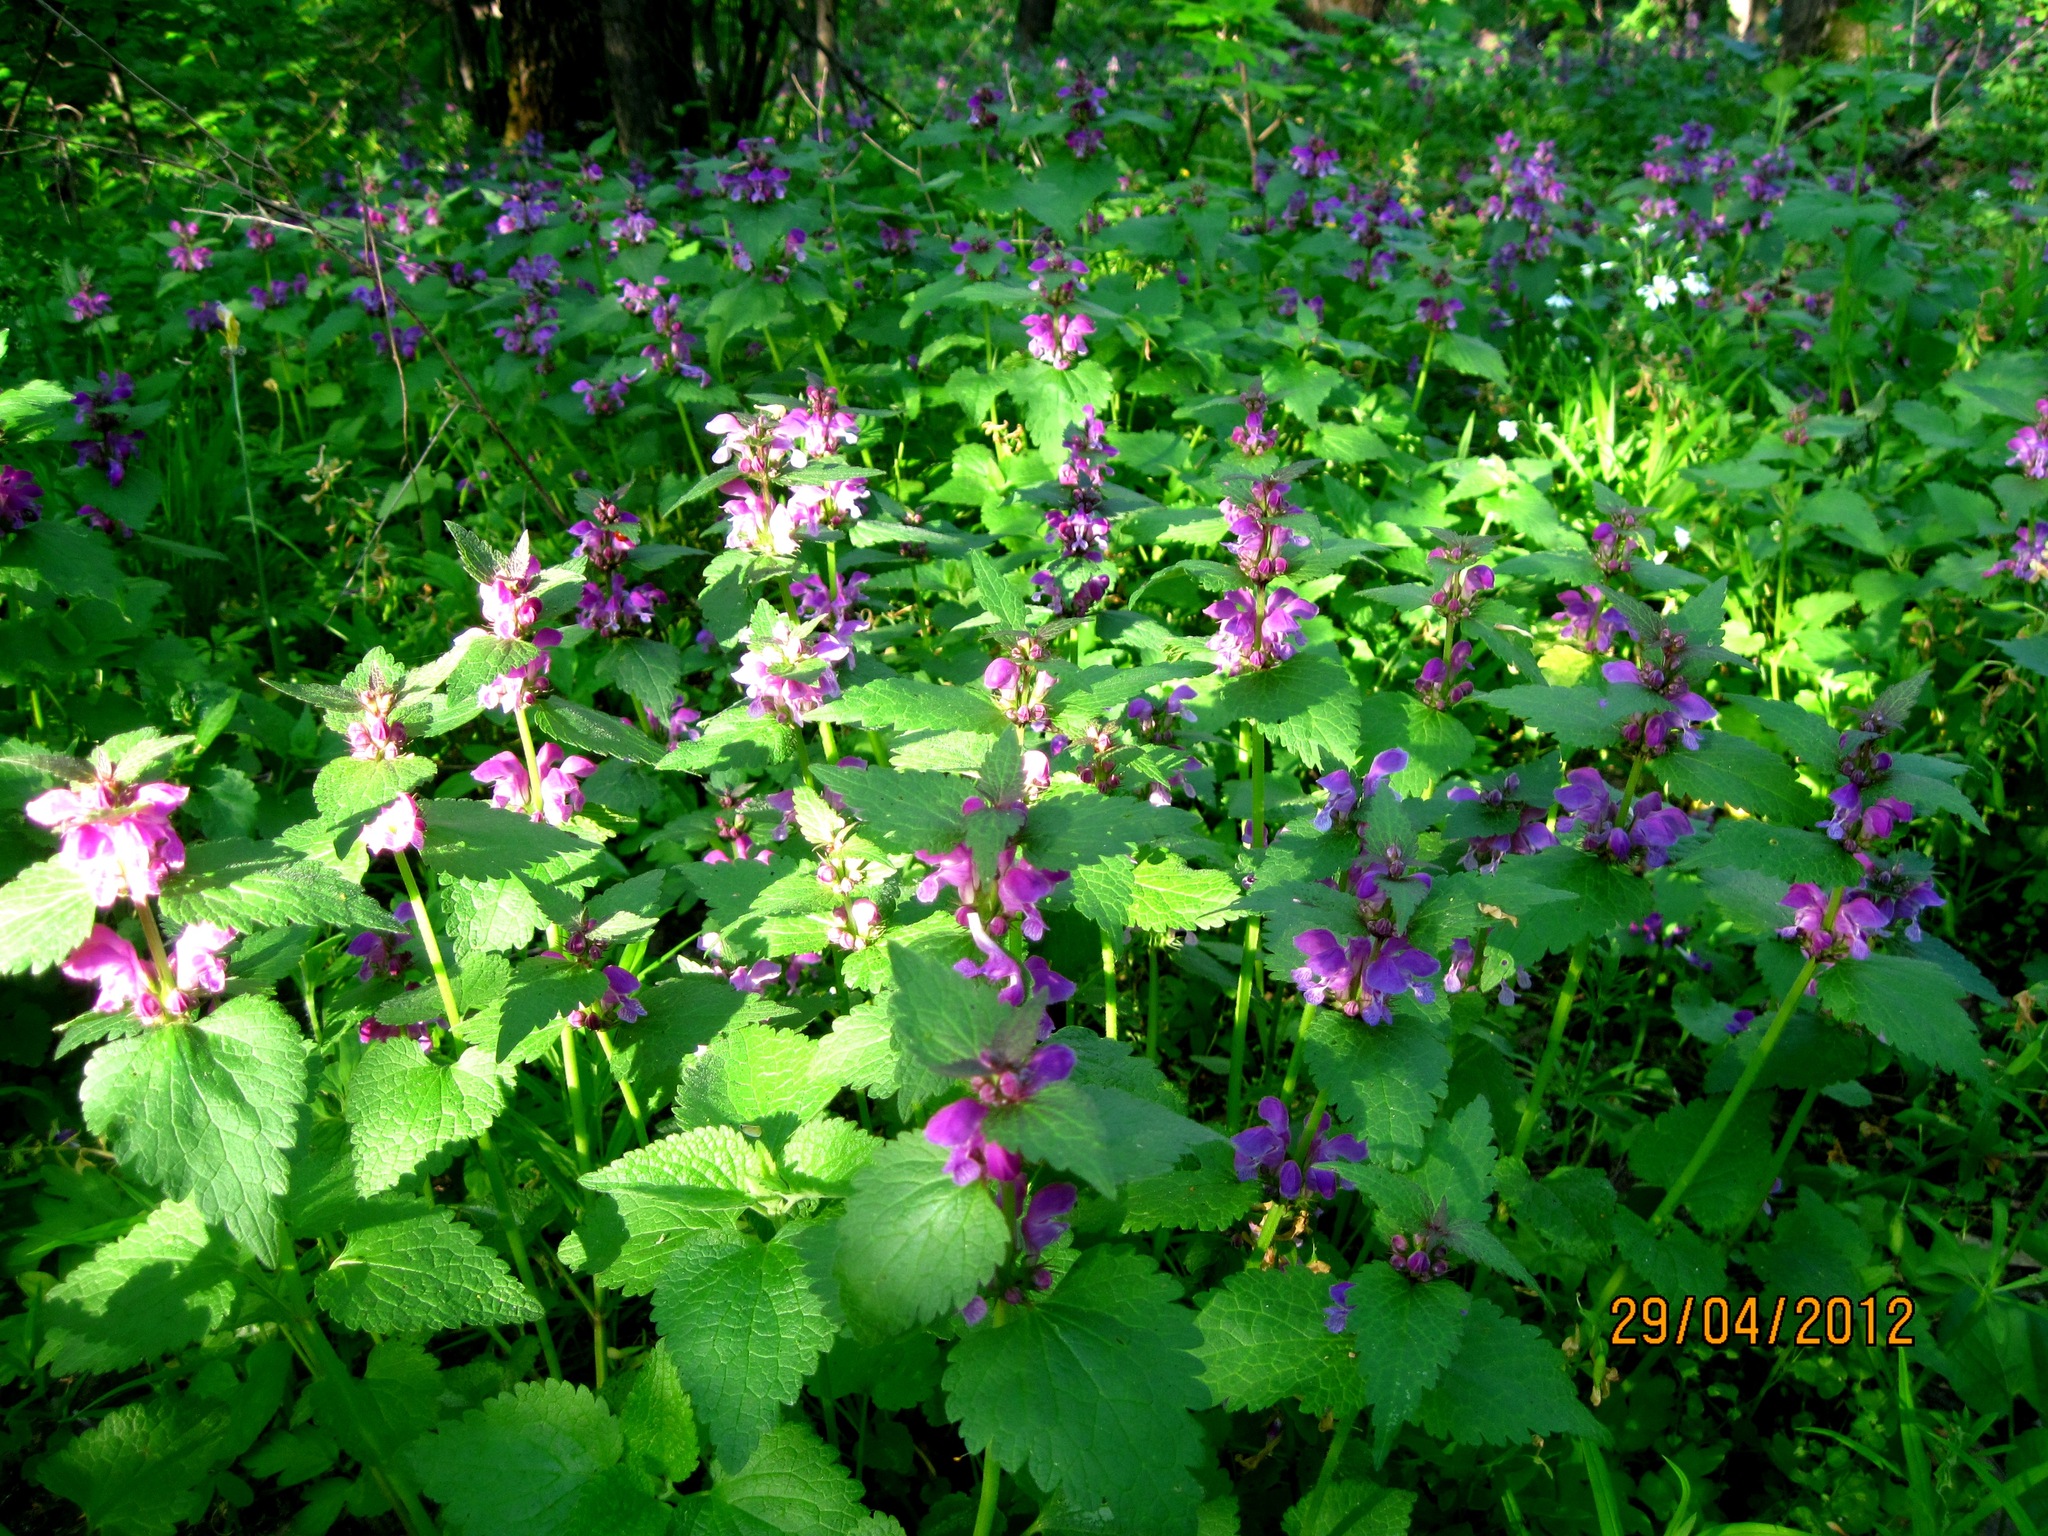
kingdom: Plantae
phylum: Tracheophyta
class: Magnoliopsida
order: Lamiales
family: Lamiaceae
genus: Lamium
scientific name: Lamium maculatum
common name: Spotted dead-nettle
